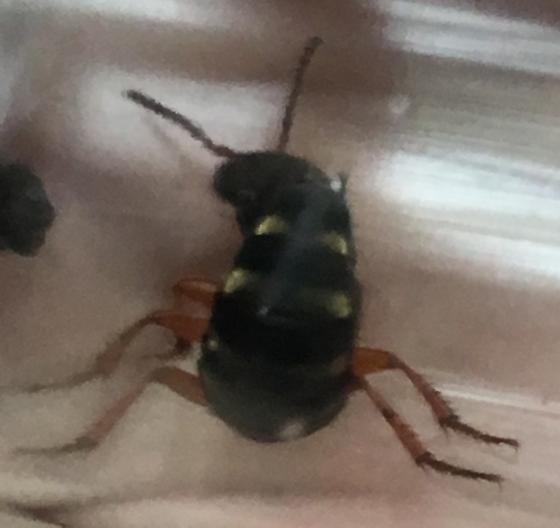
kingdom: Animalia
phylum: Arthropoda
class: Insecta
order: Coleoptera
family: Staphylinidae
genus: Dinothenarus
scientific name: Dinothenarus badipes
